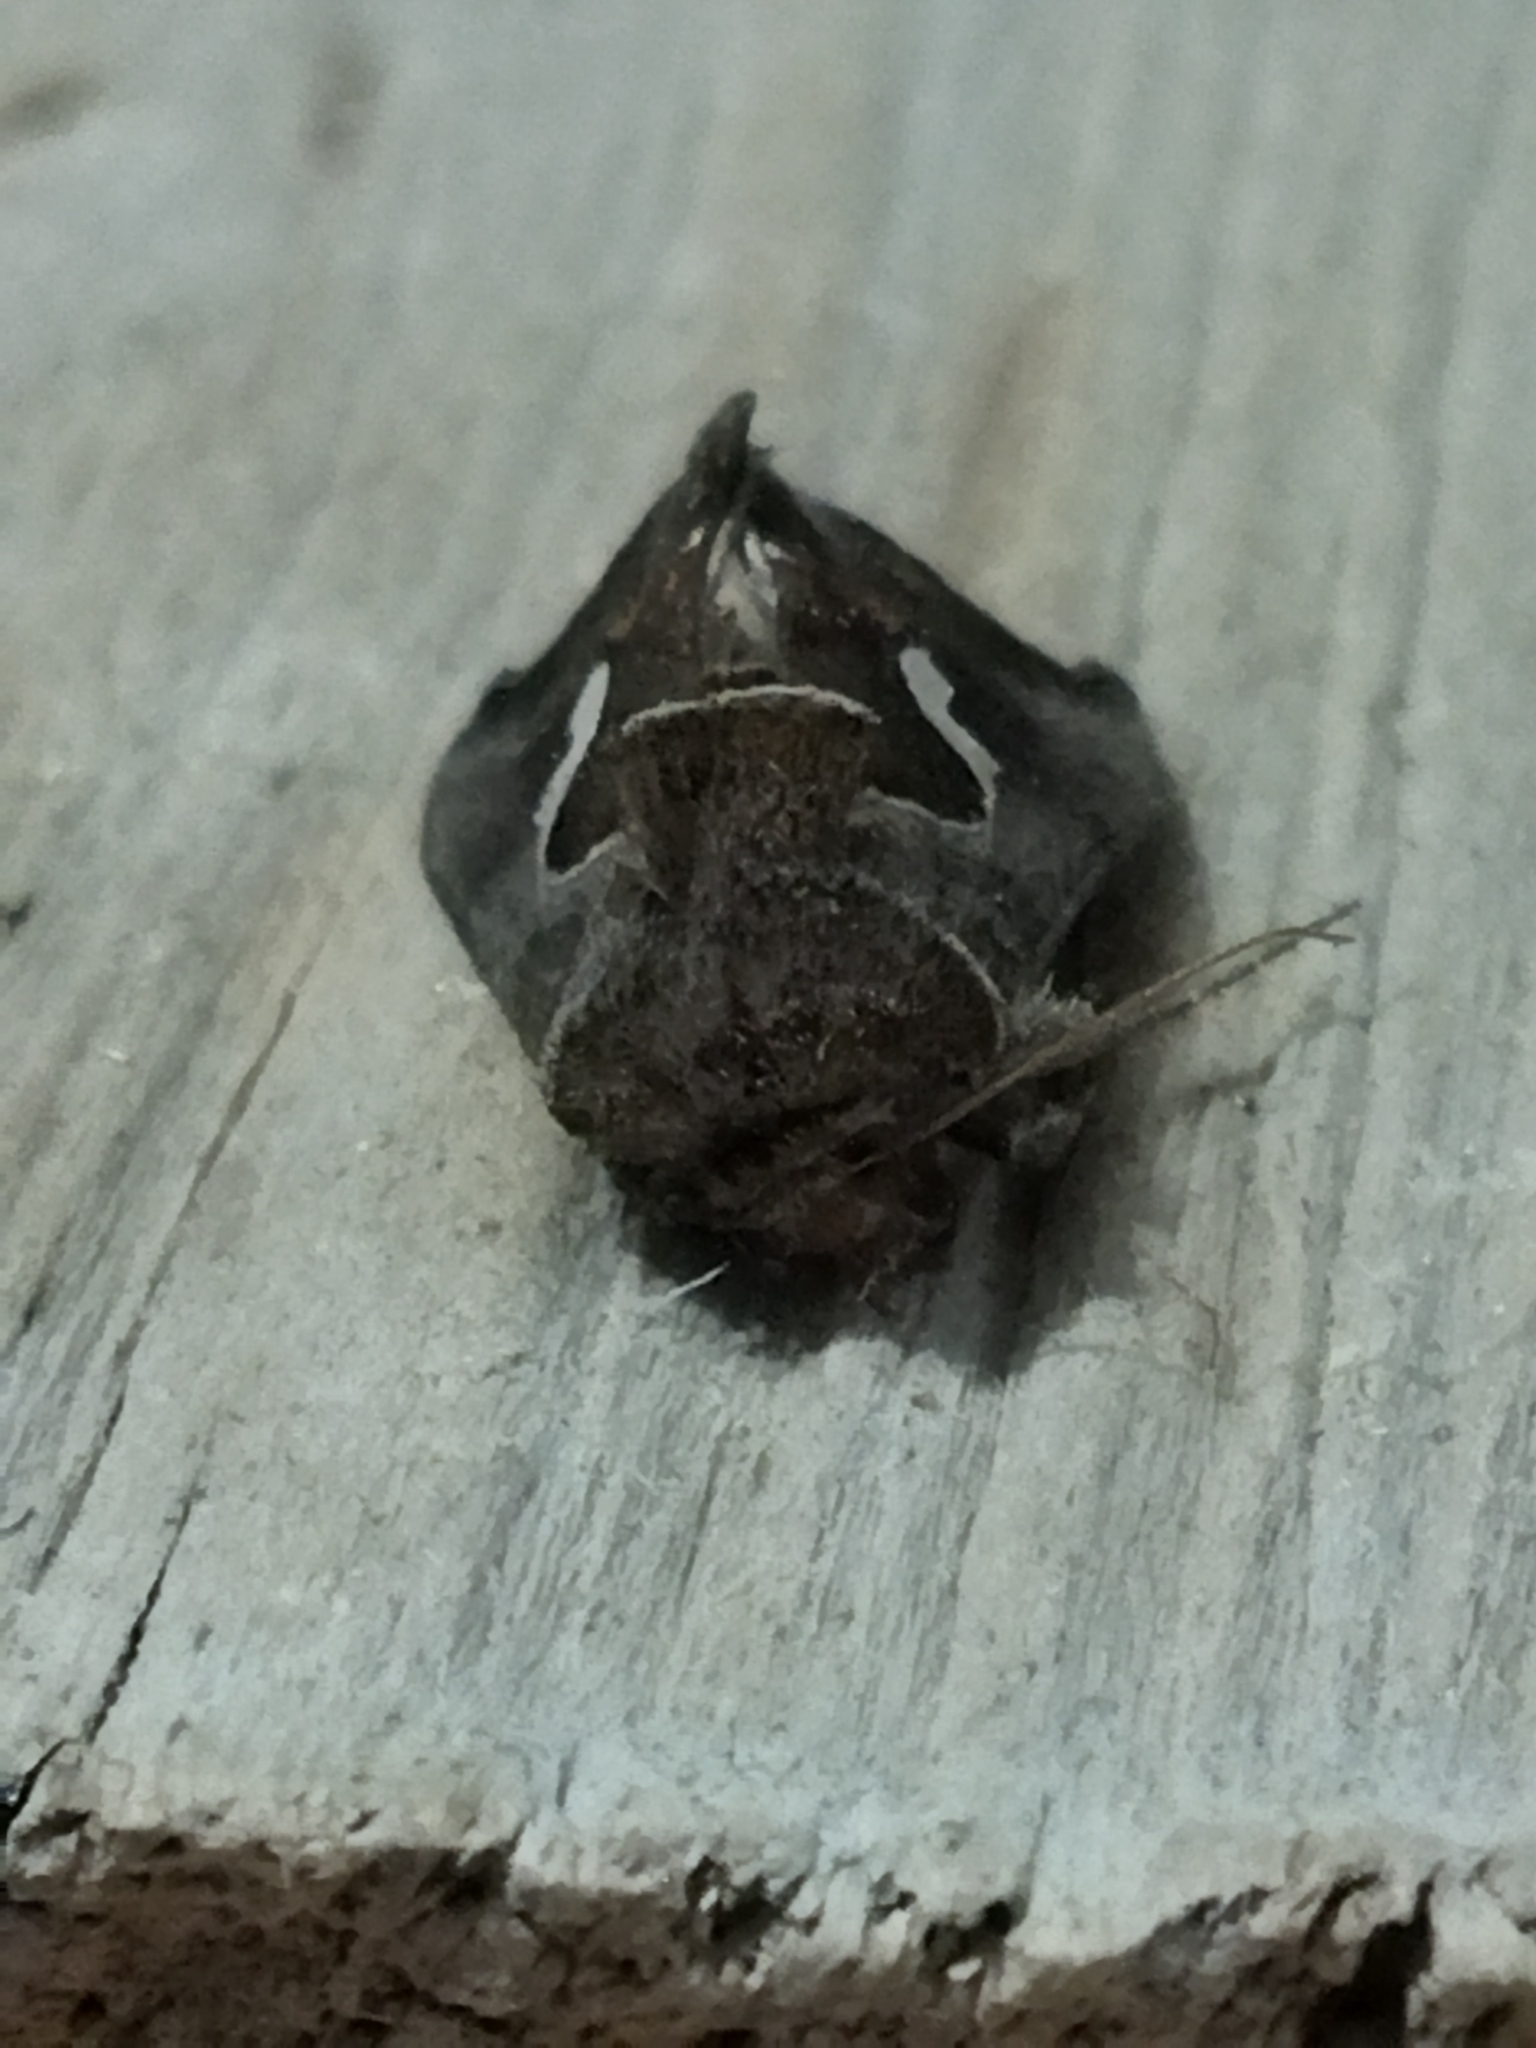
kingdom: Animalia
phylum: Arthropoda
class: Insecta
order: Lepidoptera
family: Noctuidae
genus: Macdunnoughia
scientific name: Macdunnoughia confusa
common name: Dewick's plusia
